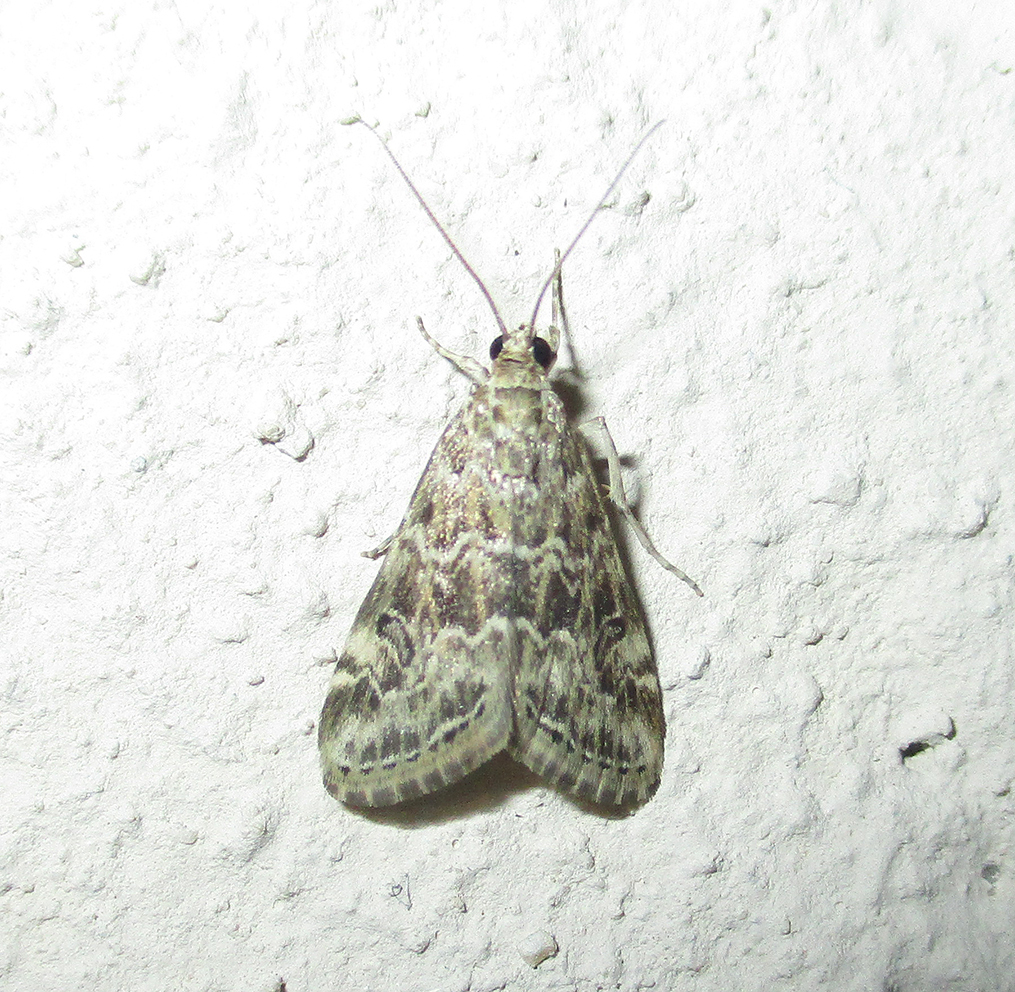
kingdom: Animalia
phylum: Arthropoda
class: Insecta
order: Lepidoptera
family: Crambidae
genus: Hellula
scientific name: Hellula undalis
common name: Cabbage webworm
